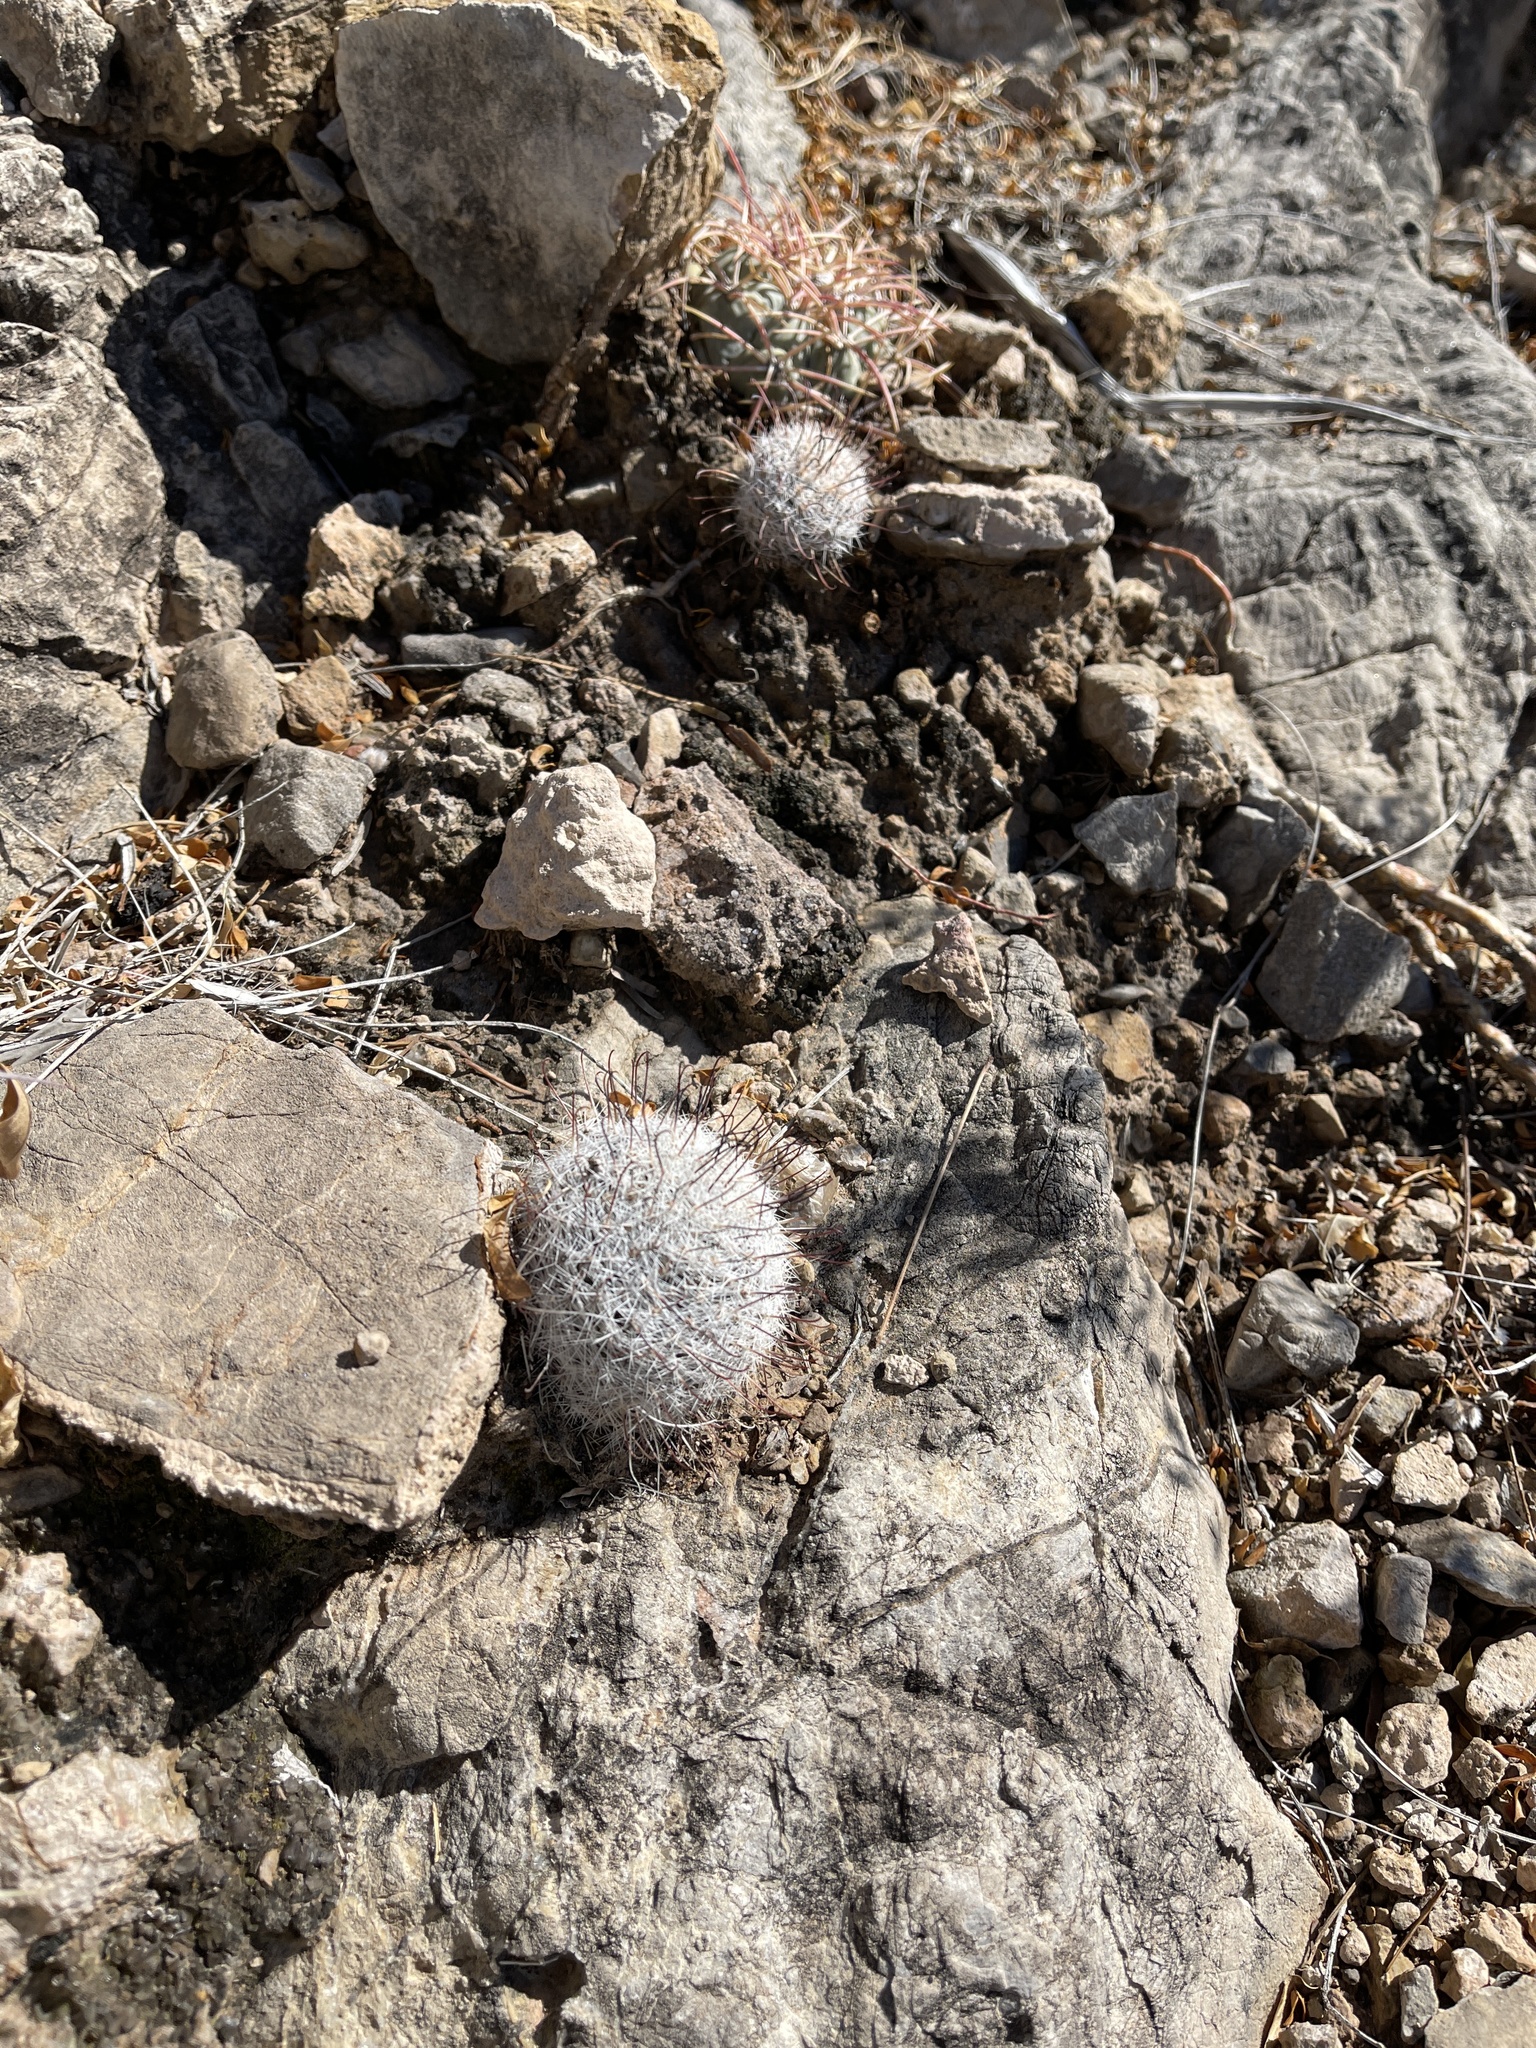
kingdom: Plantae
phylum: Tracheophyta
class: Magnoliopsida
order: Caryophyllales
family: Cactaceae
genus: Cochemiea
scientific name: Cochemiea grahamii
